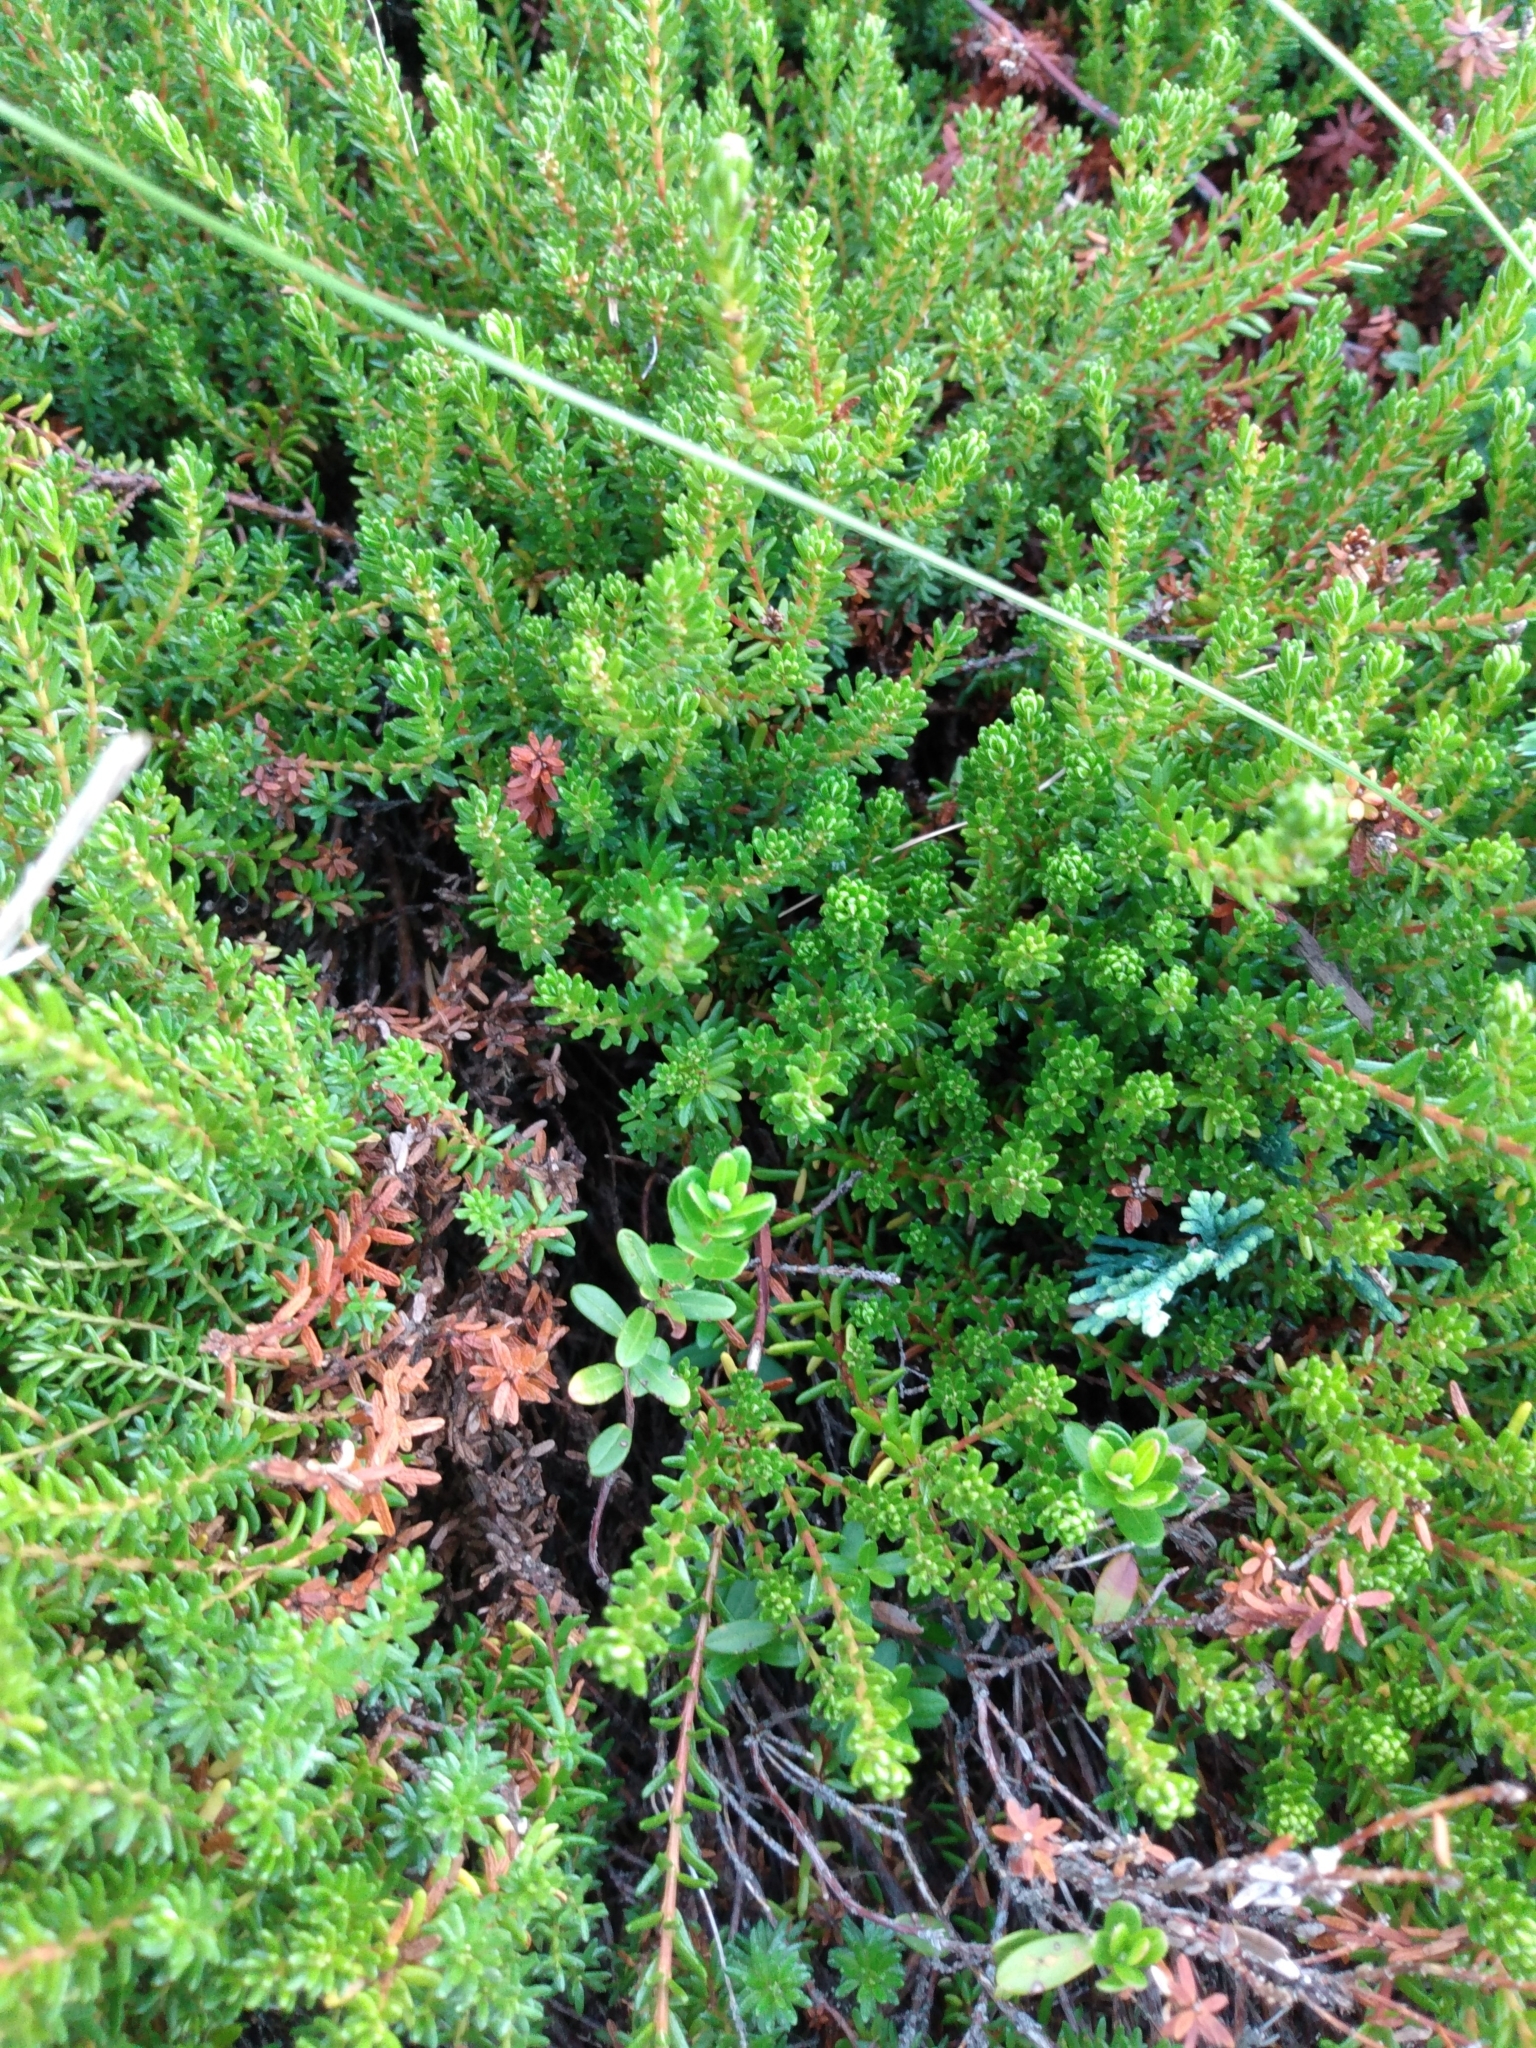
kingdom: Plantae
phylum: Tracheophyta
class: Magnoliopsida
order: Ericales
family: Ericaceae
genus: Empetrum
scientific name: Empetrum nigrum
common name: Black crowberry
